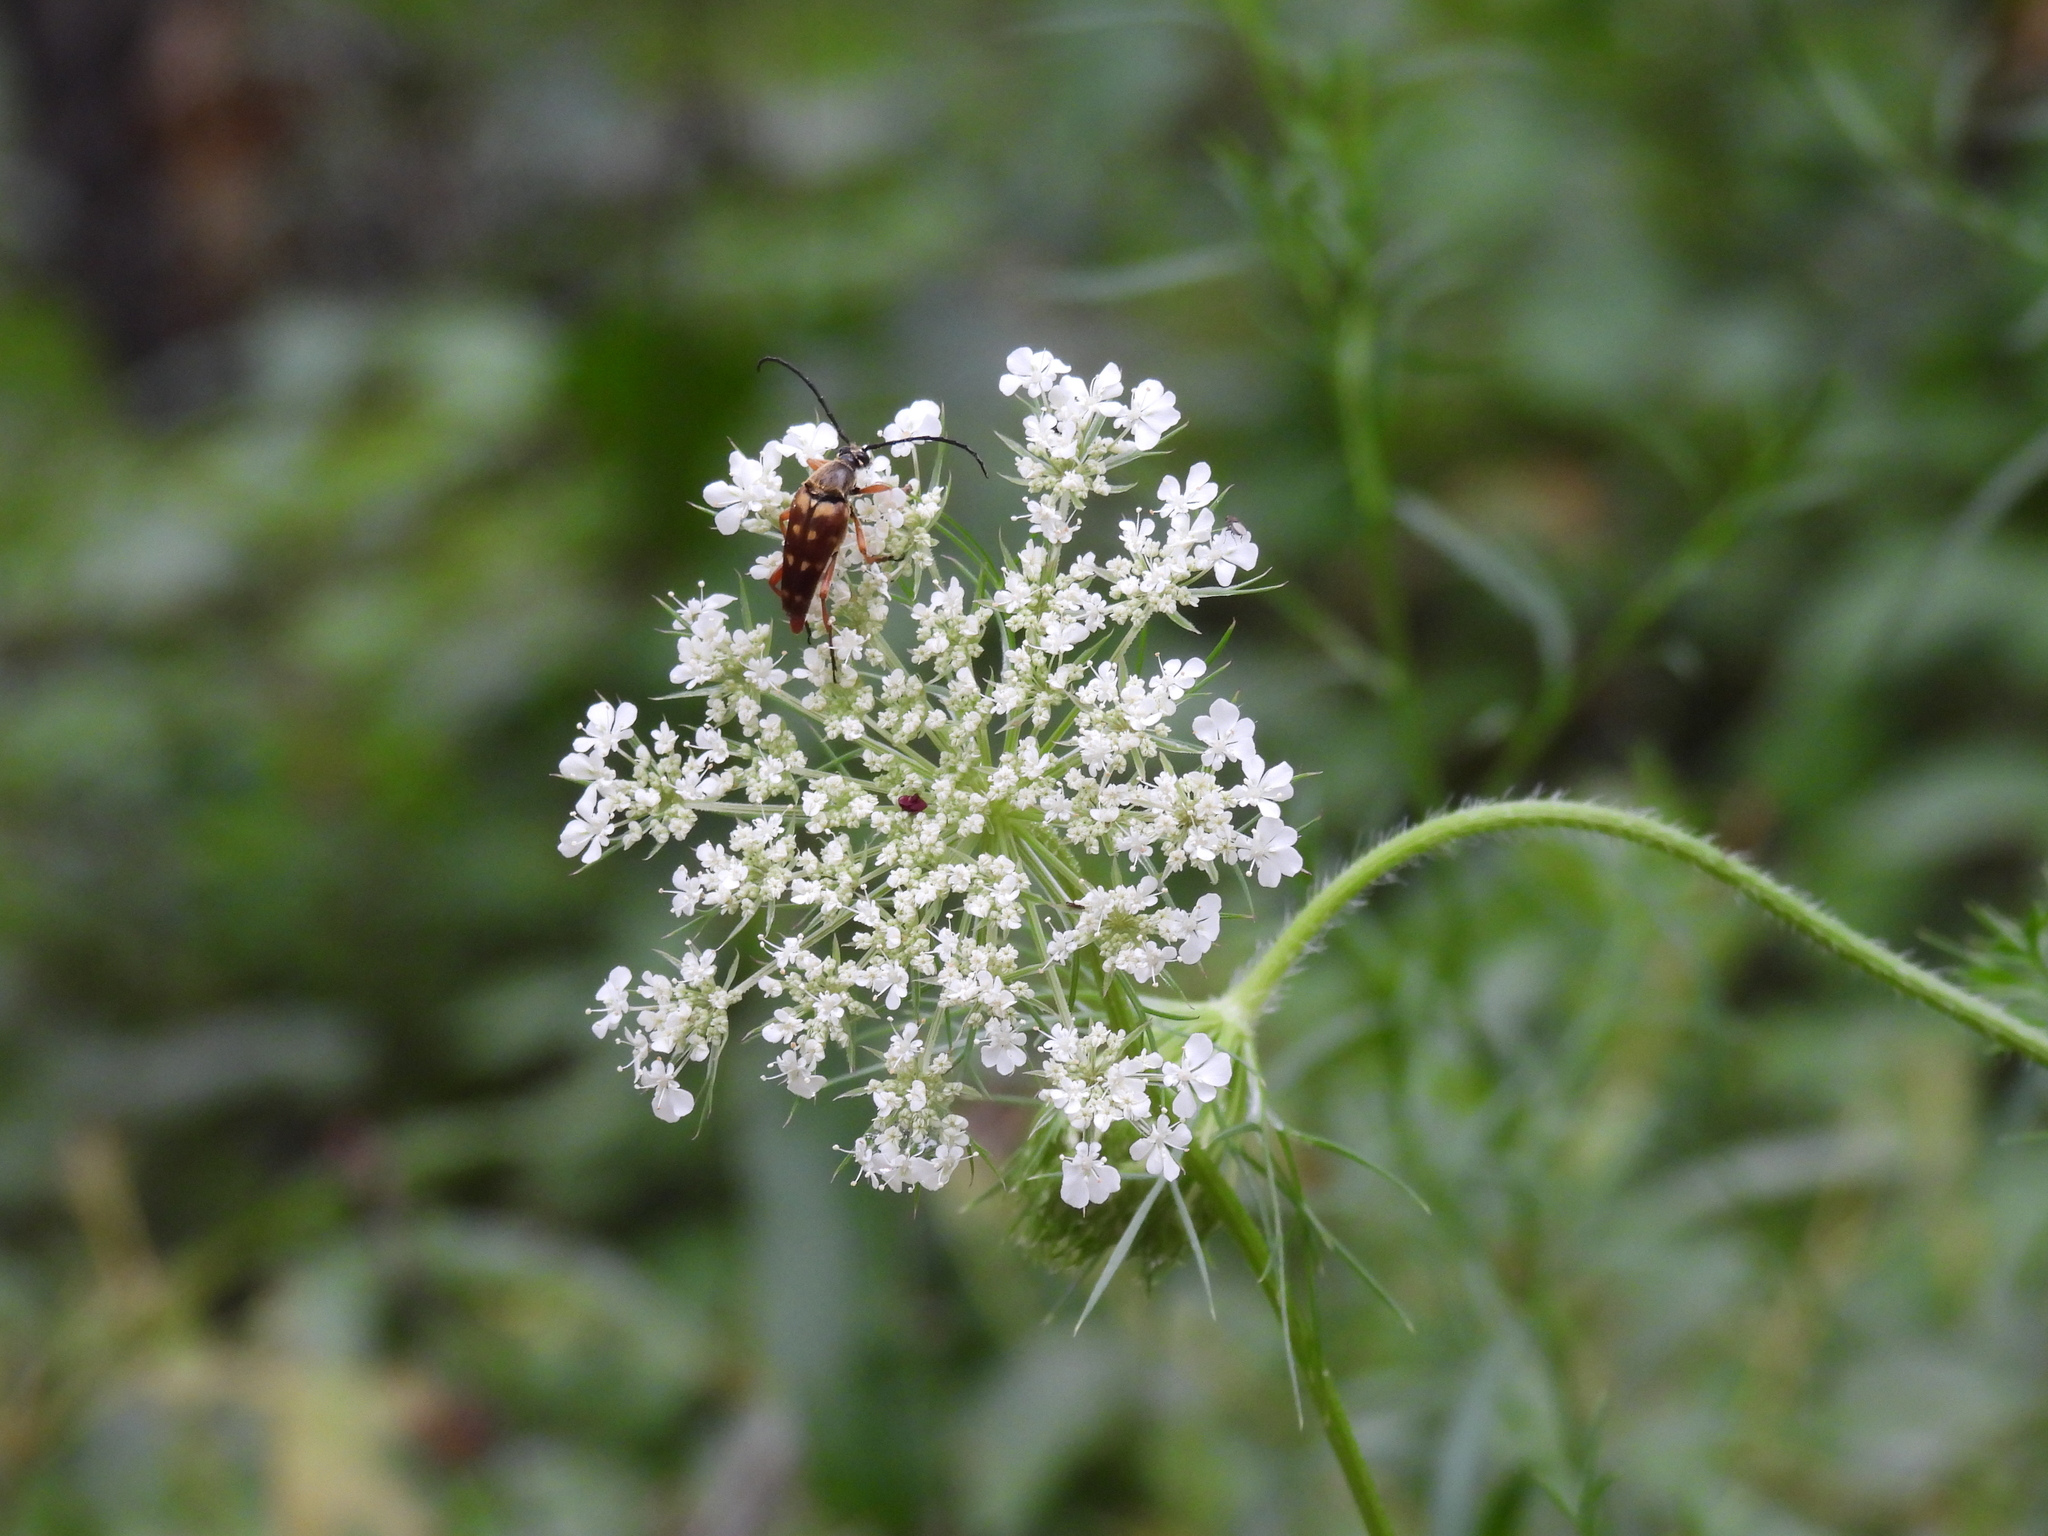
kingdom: Animalia
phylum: Arthropoda
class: Insecta
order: Coleoptera
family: Cerambycidae
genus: Typocerus
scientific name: Typocerus velutinus
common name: Banded longhorn beetle
